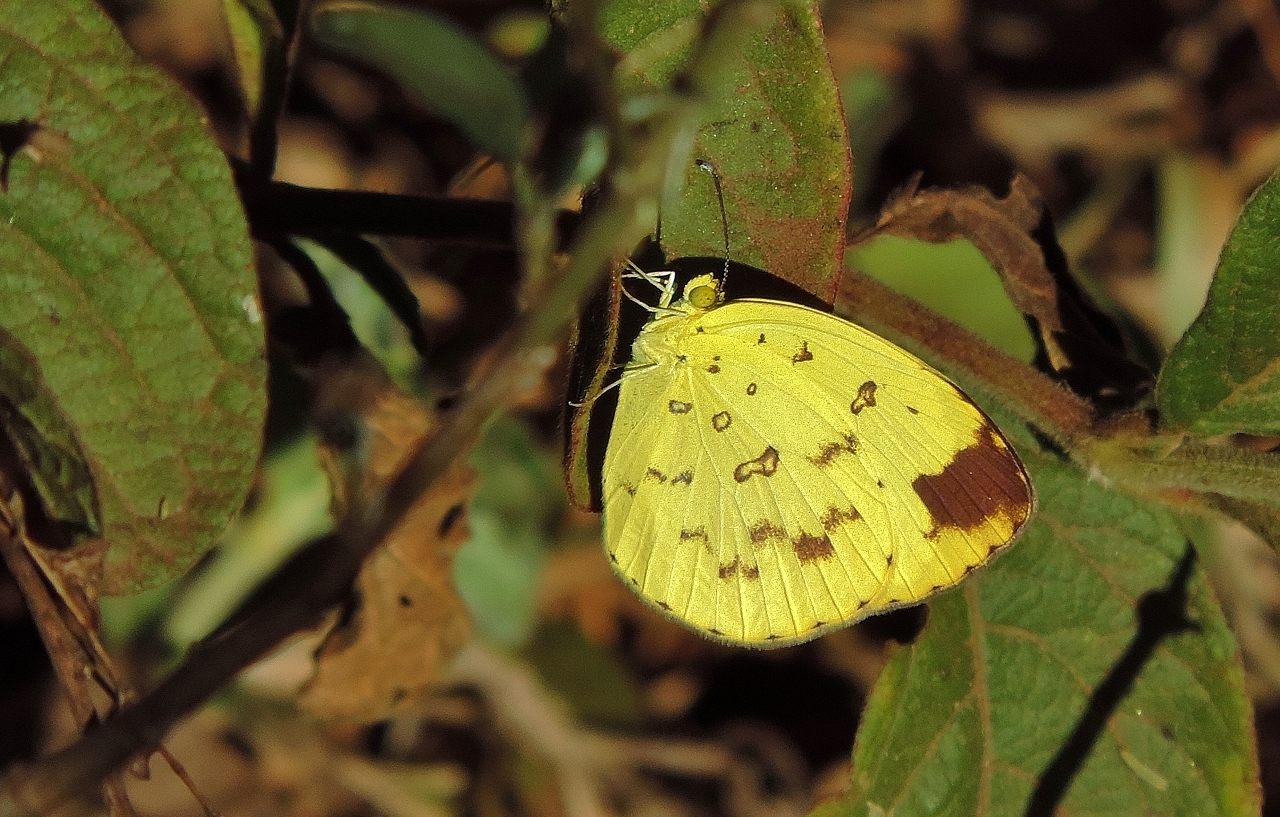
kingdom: Animalia
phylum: Arthropoda
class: Insecta
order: Lepidoptera
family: Pieridae
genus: Eurema
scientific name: Eurema hecabe
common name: Pale grass yellow
